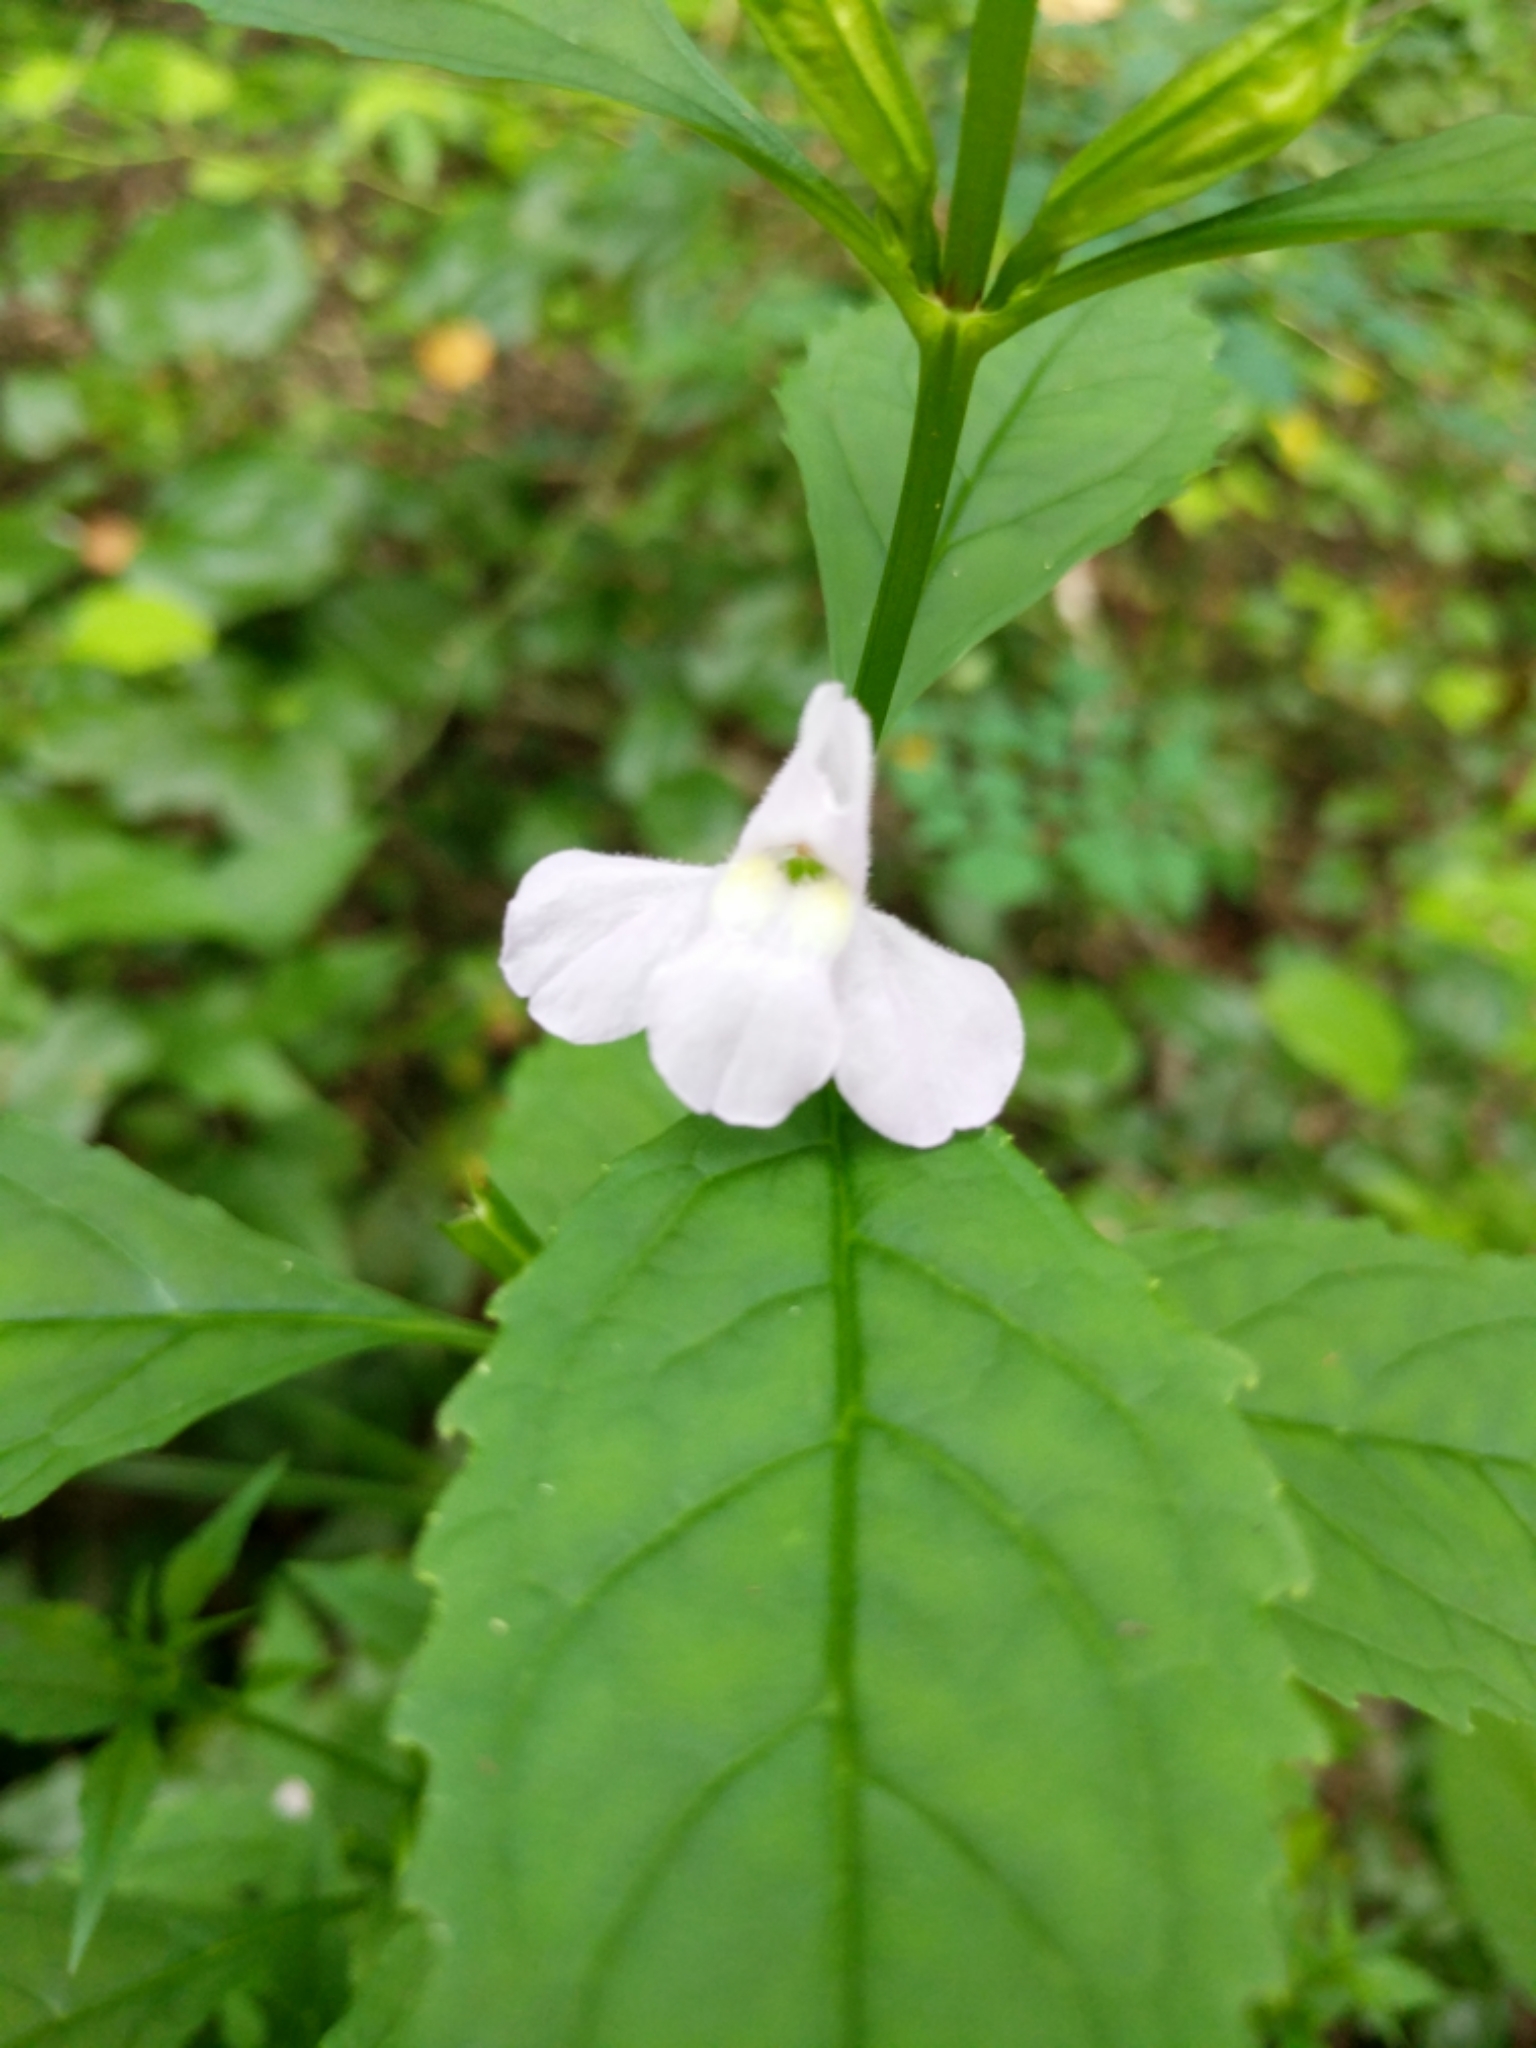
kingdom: Plantae
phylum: Tracheophyta
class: Magnoliopsida
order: Lamiales
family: Phrymaceae
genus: Mimulus
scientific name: Mimulus alatus
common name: Sharp-wing monkey-flower
